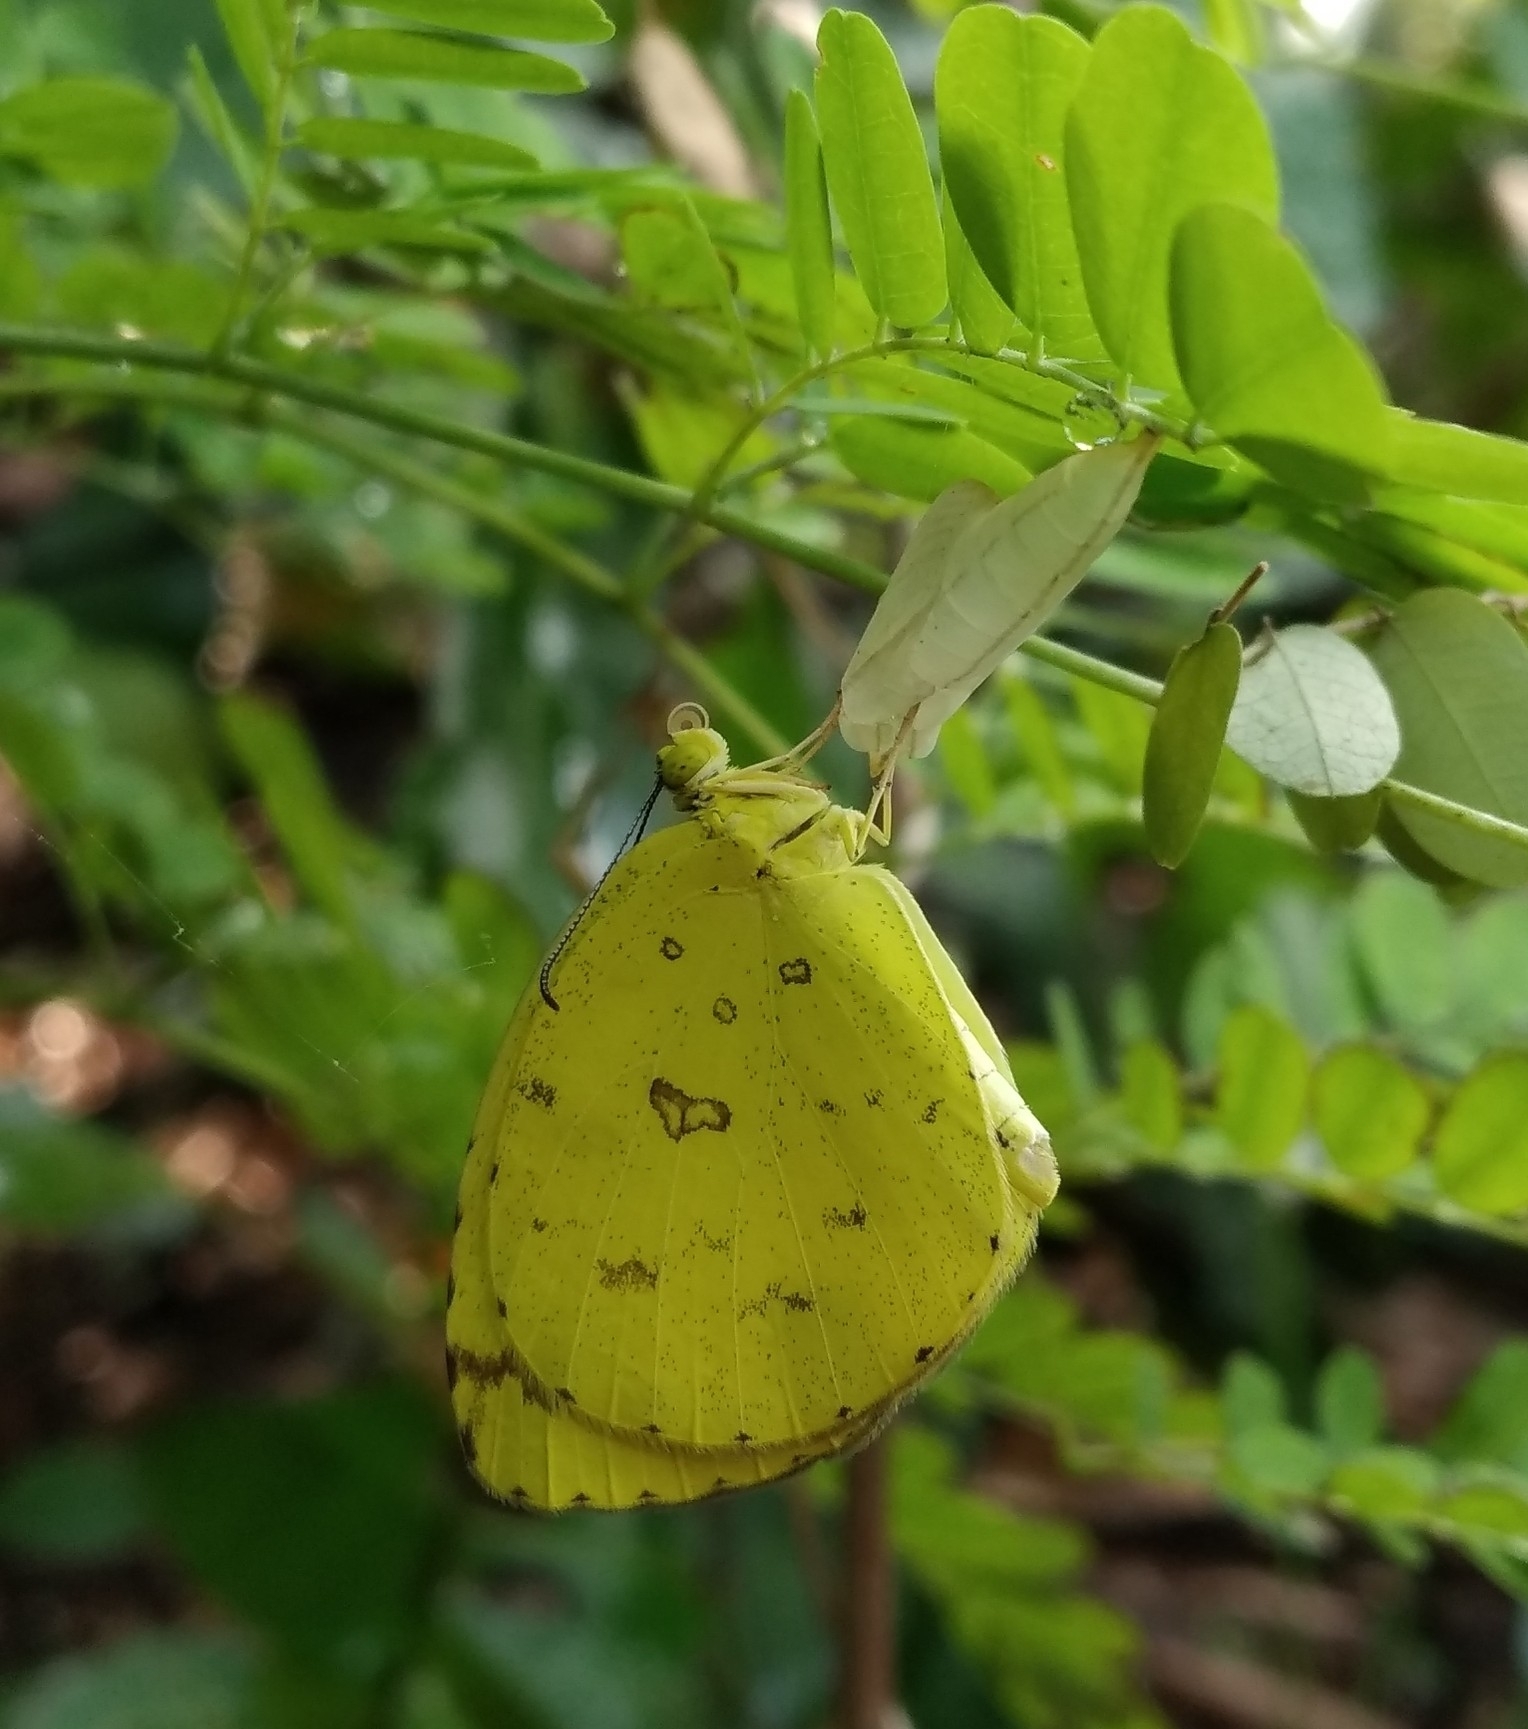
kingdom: Animalia
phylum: Arthropoda
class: Insecta
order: Lepidoptera
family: Pieridae
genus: Eurema
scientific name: Eurema hecabe
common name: Pale grass yellow
